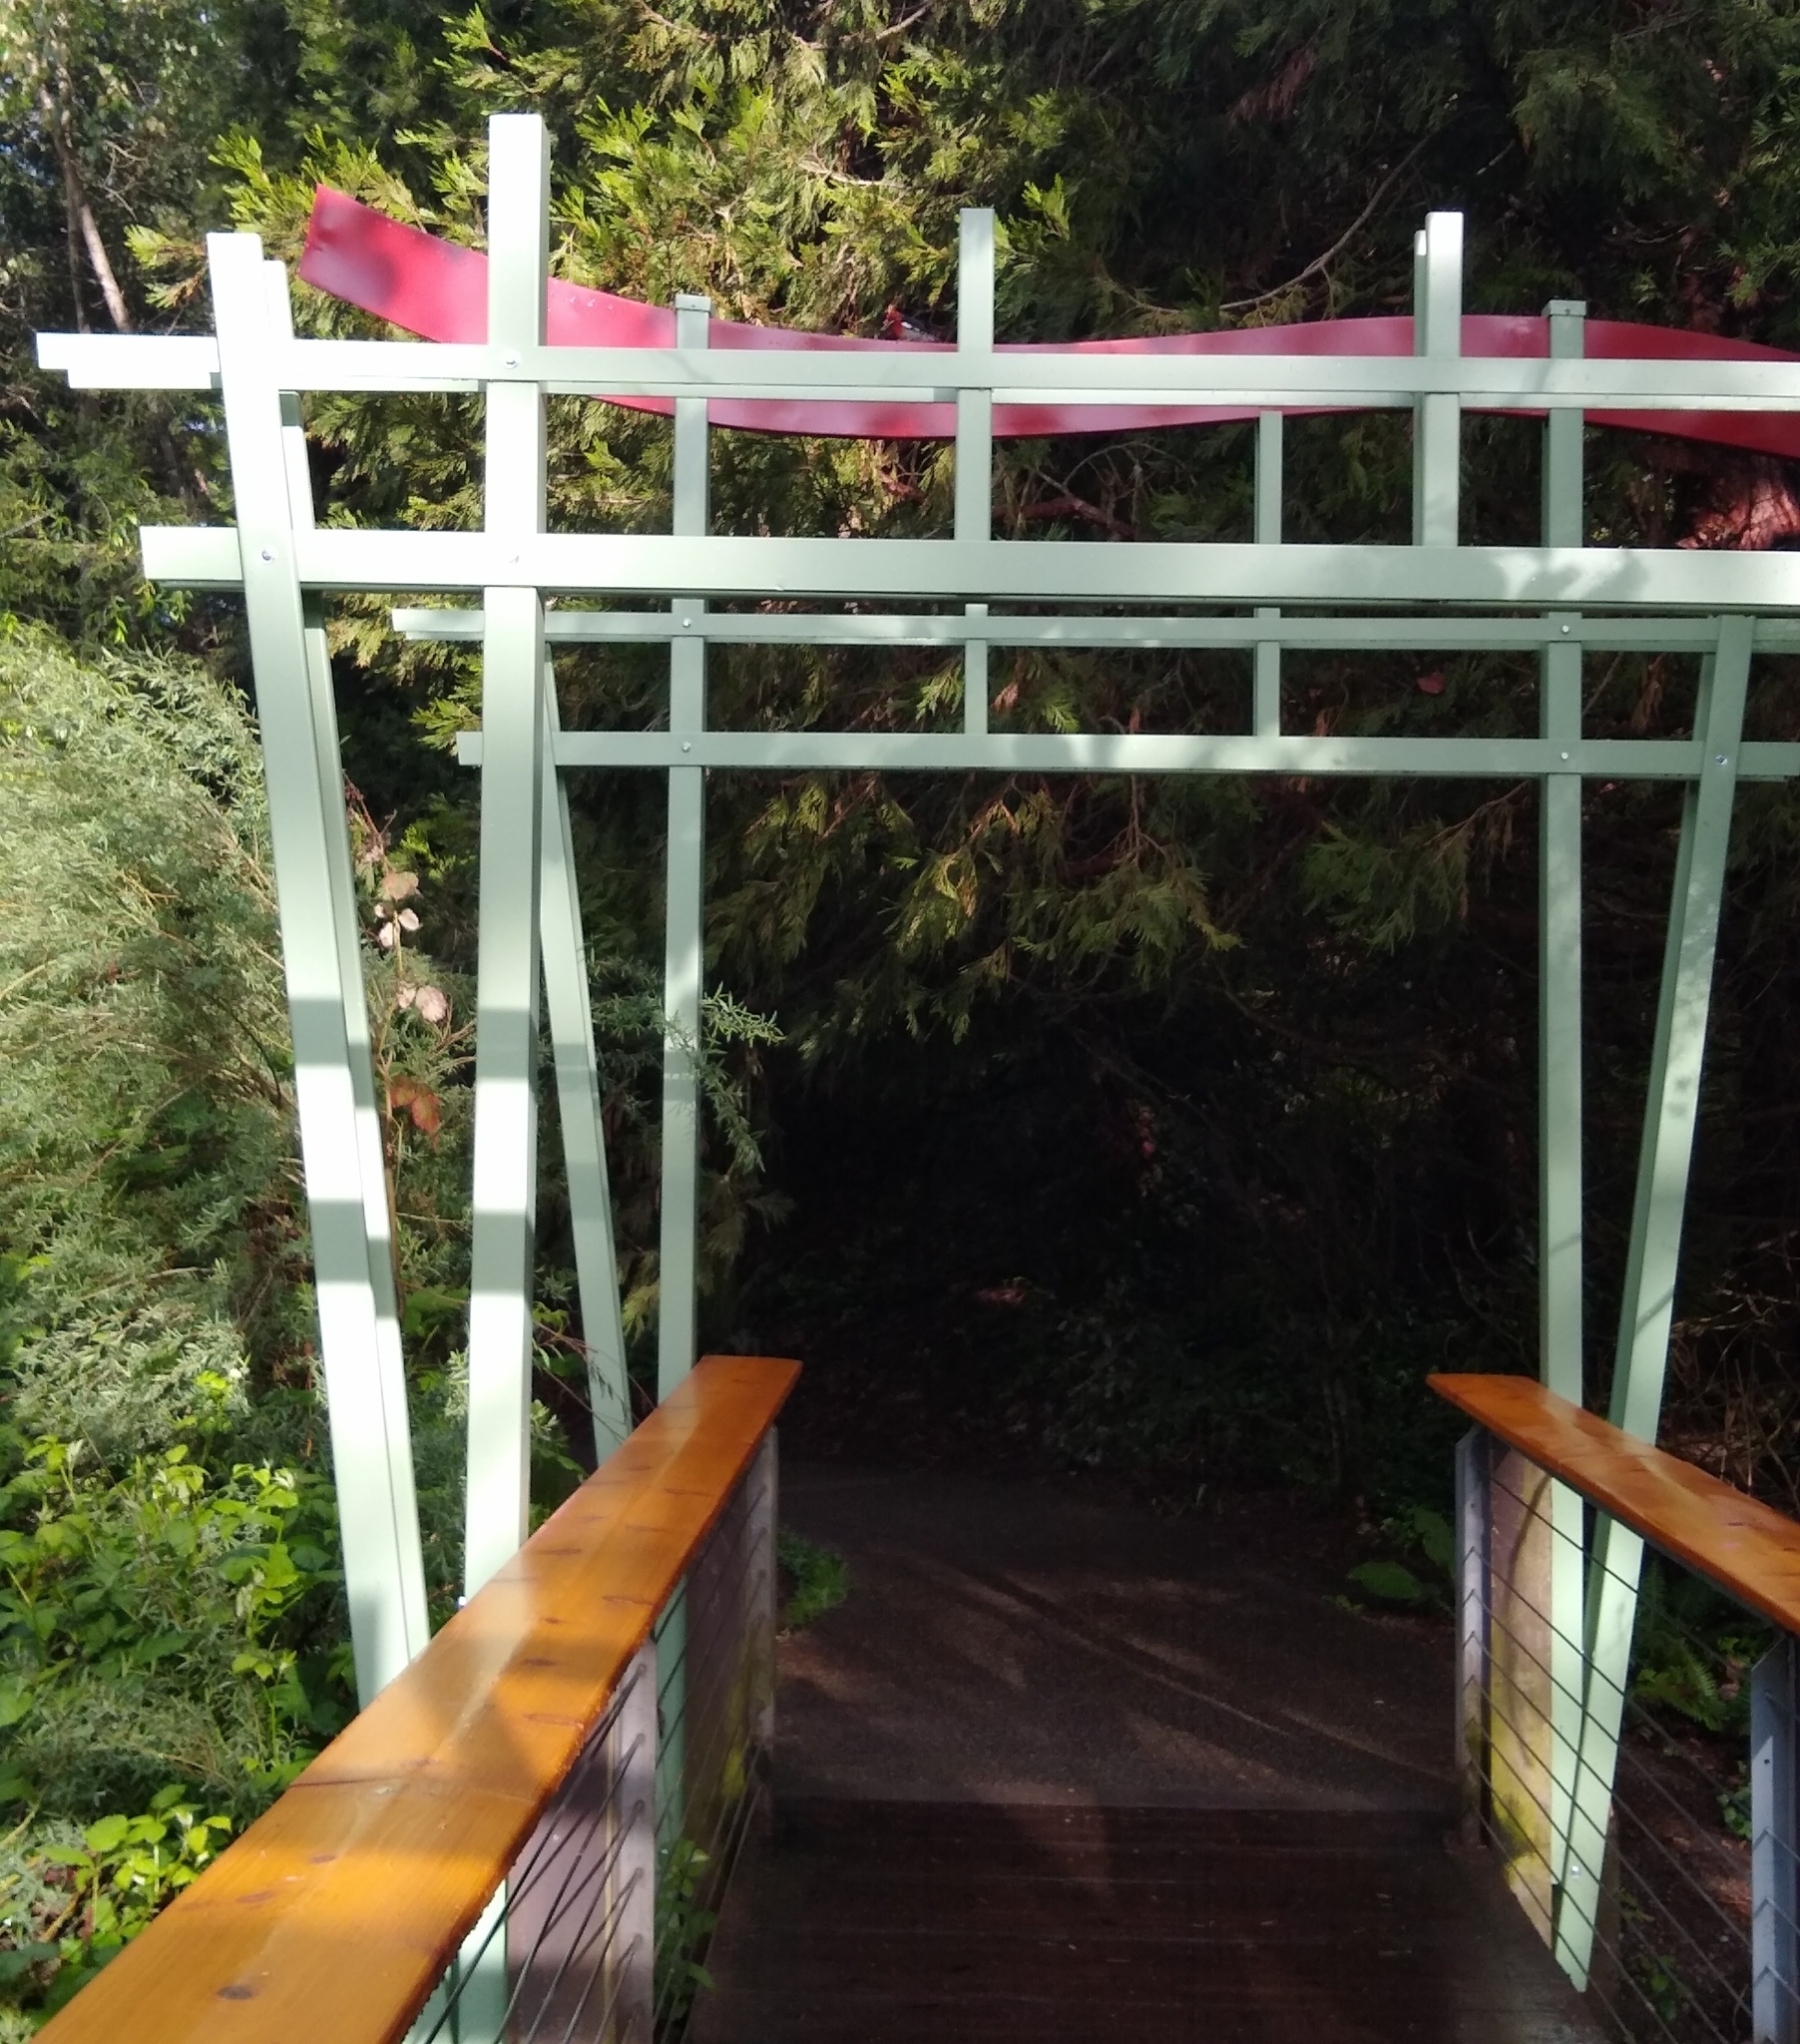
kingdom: Animalia
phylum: Chordata
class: Aves
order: Piciformes
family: Picidae
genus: Sphyrapicus
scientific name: Sphyrapicus ruber
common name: Red-breasted sapsucker
